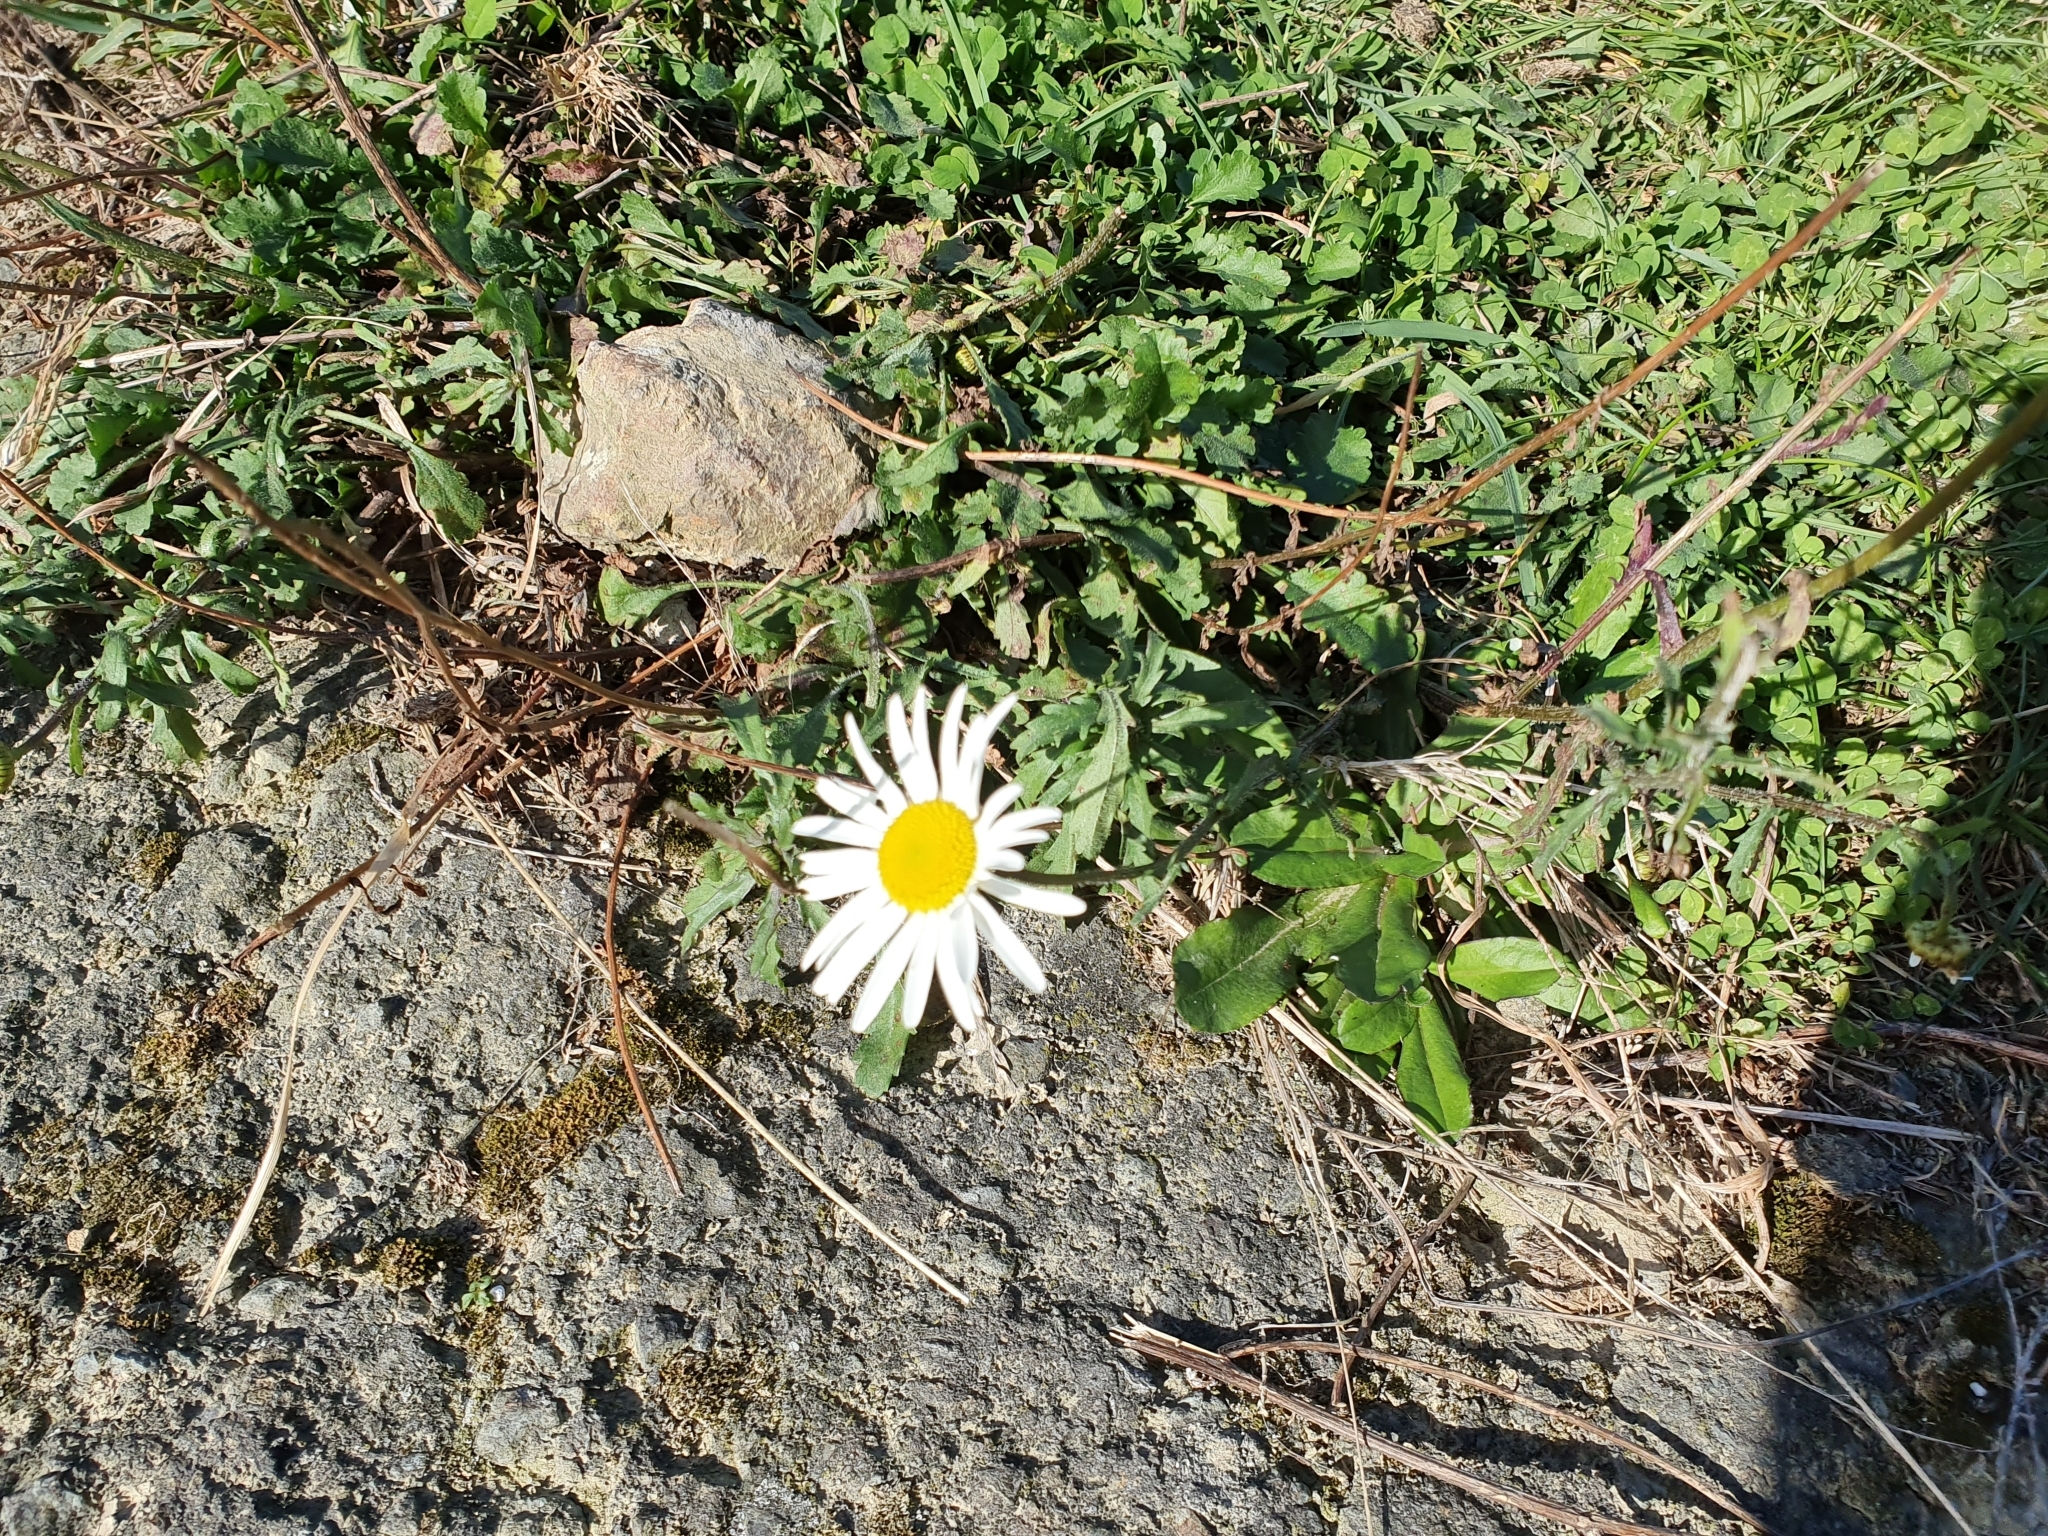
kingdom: Plantae
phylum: Tracheophyta
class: Magnoliopsida
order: Asterales
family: Asteraceae
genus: Leucanthemum
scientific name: Leucanthemum vulgare
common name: Oxeye daisy
